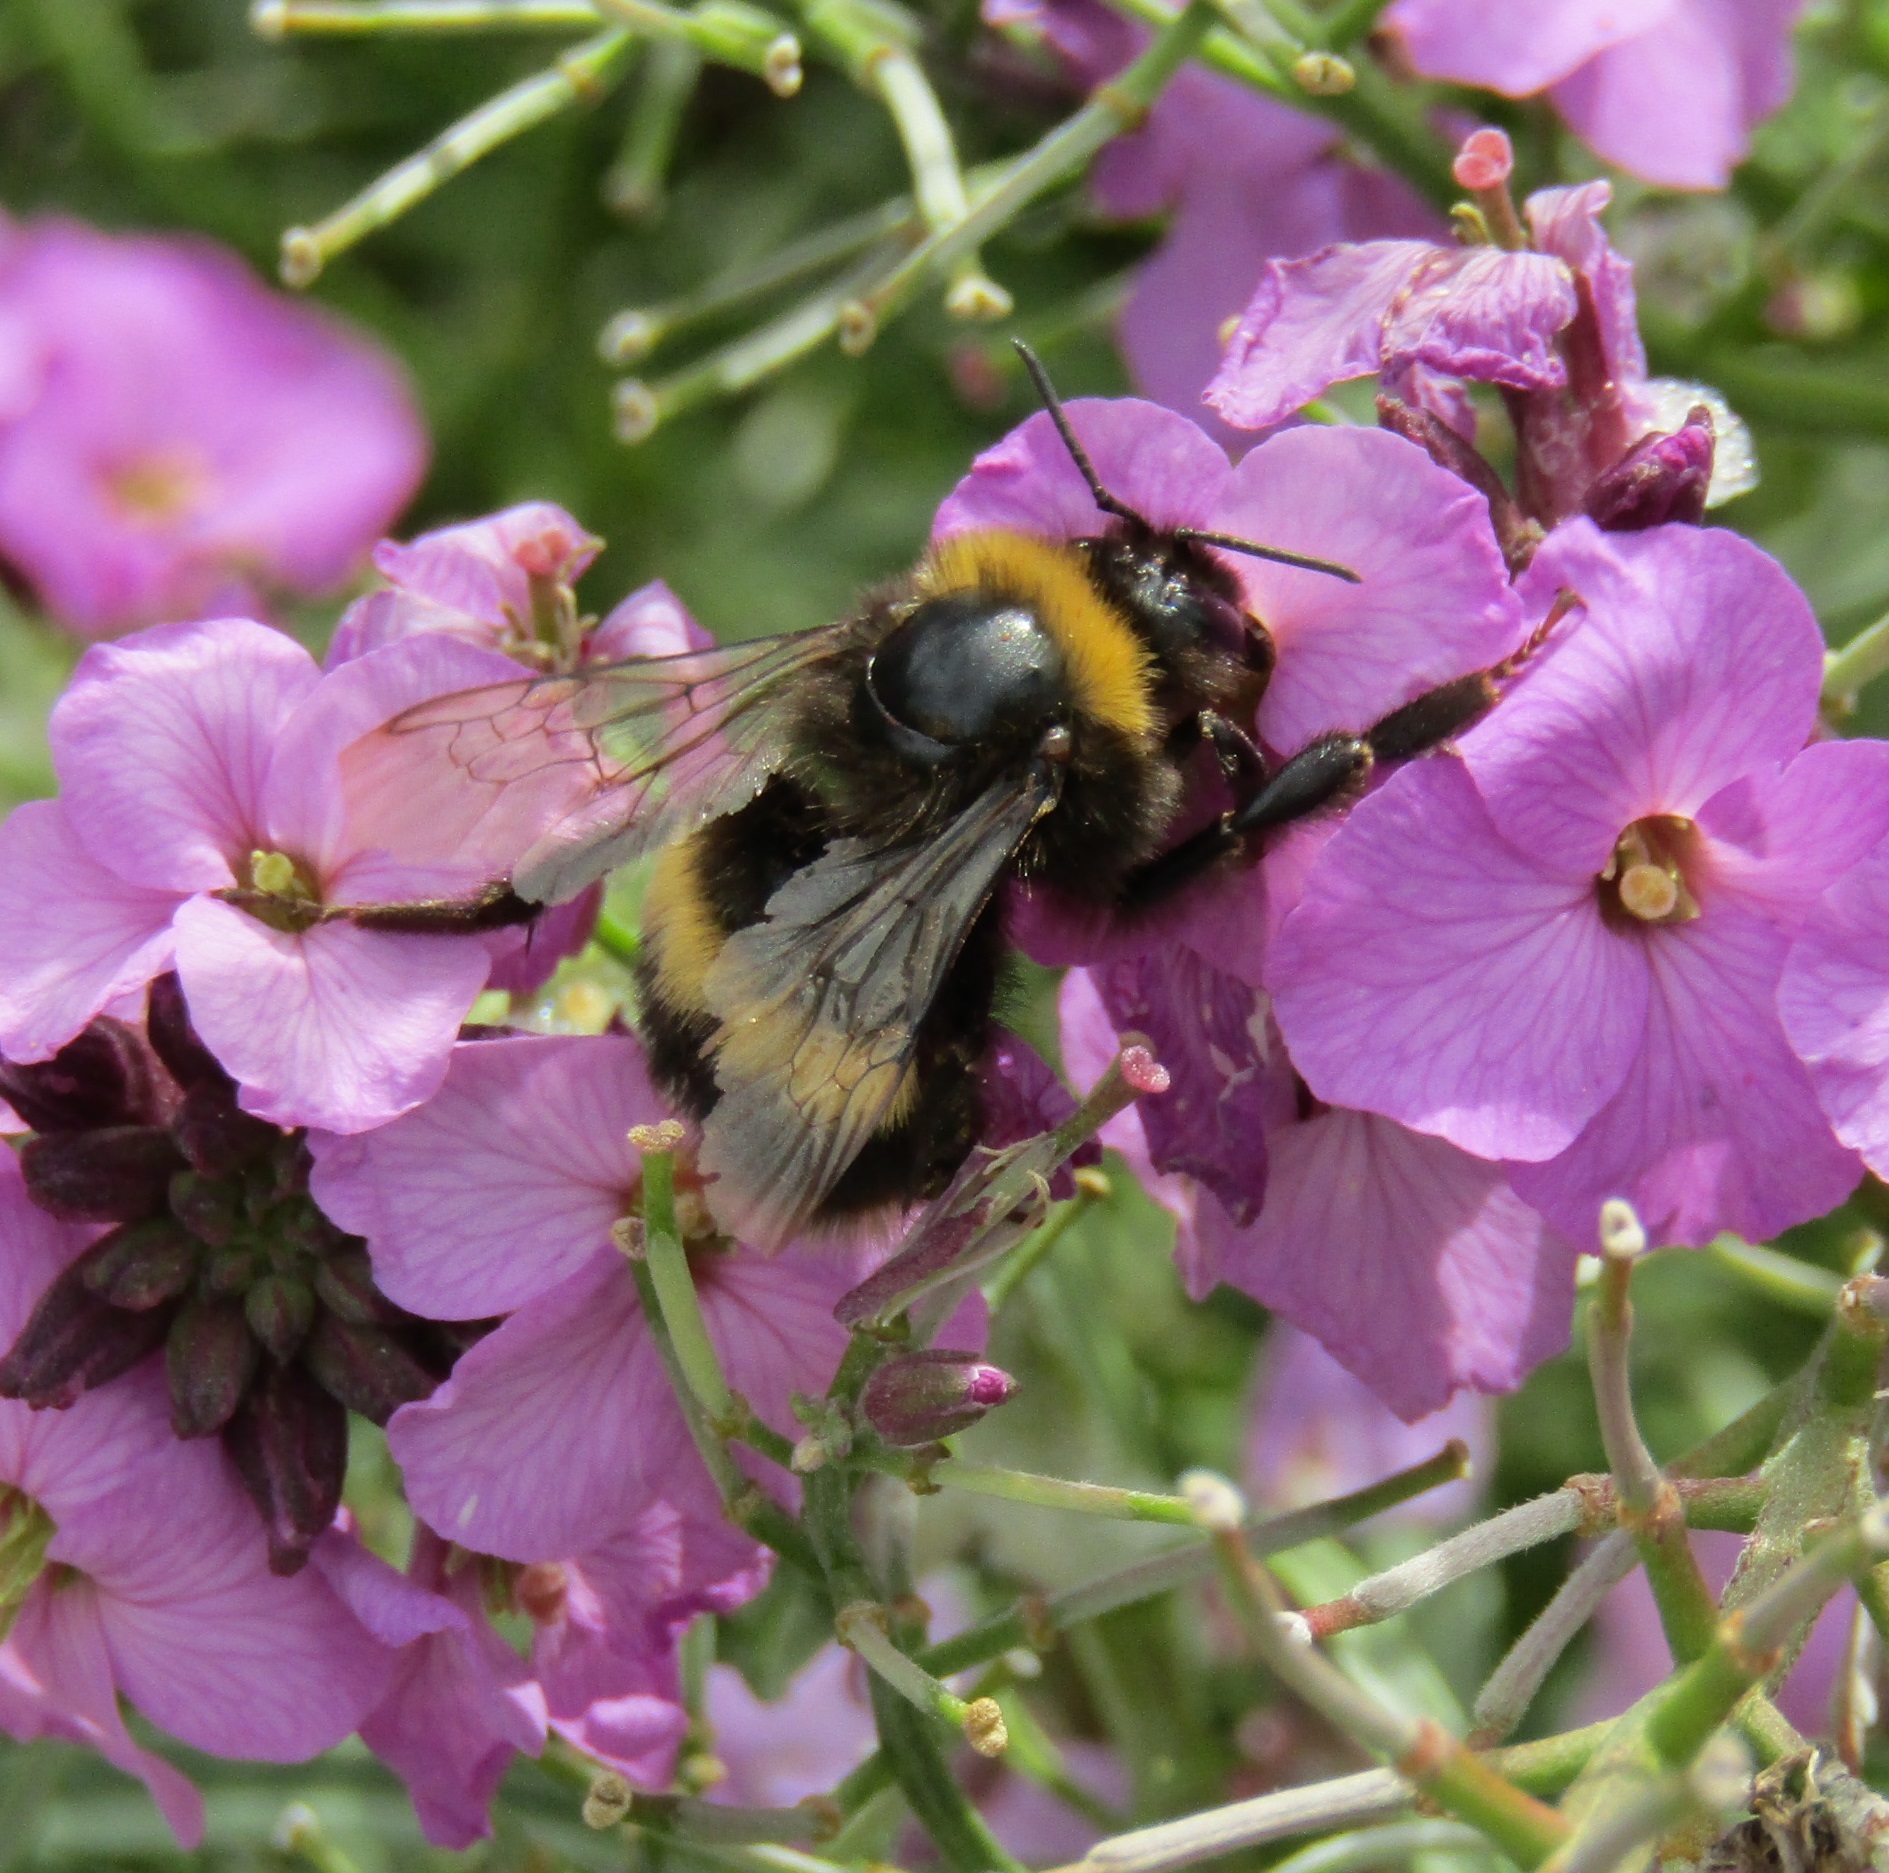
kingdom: Animalia
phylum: Arthropoda
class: Insecta
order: Hymenoptera
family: Apidae
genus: Bombus
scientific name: Bombus terrestris
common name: Buff-tailed bumblebee
